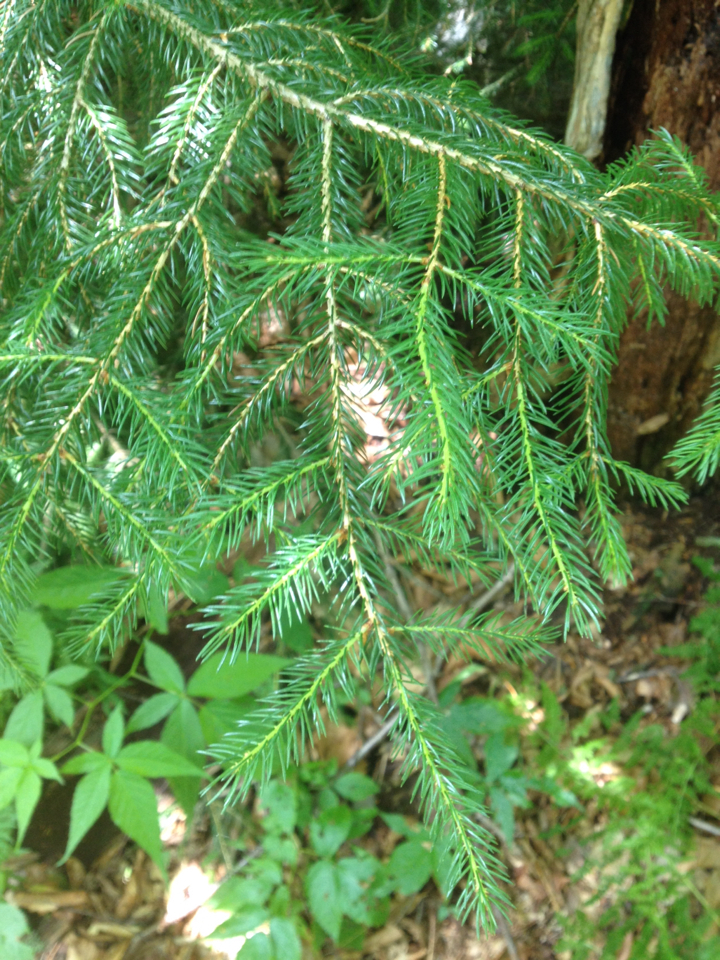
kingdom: Plantae
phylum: Tracheophyta
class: Pinopsida
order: Pinales
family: Pinaceae
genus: Picea
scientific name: Picea rubens
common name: Red spruce
